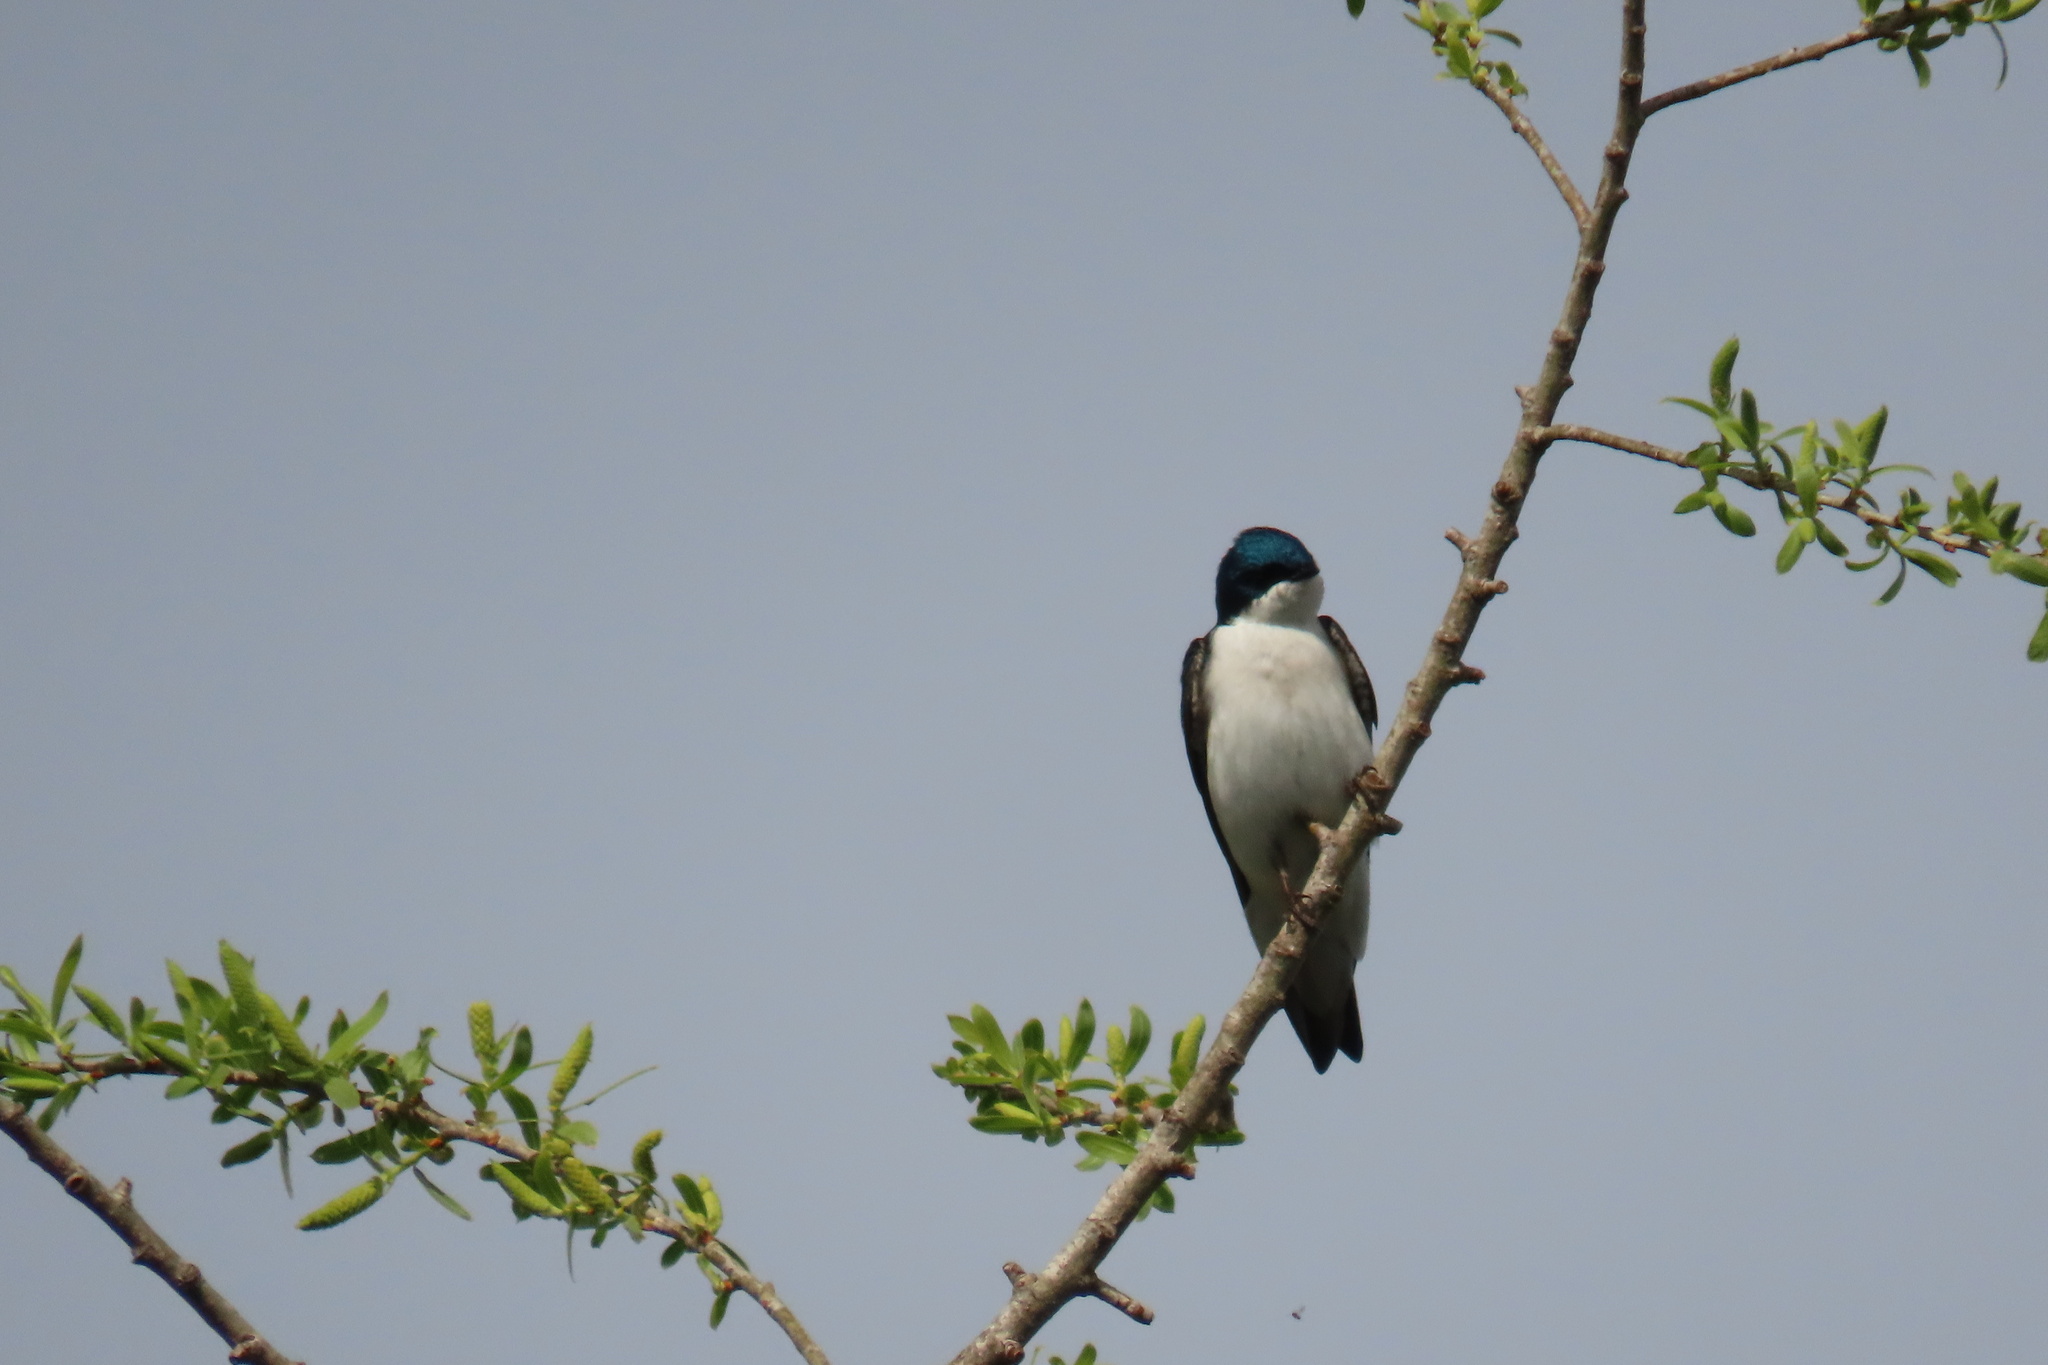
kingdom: Animalia
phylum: Chordata
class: Aves
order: Passeriformes
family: Hirundinidae
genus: Tachycineta
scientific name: Tachycineta bicolor
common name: Tree swallow
